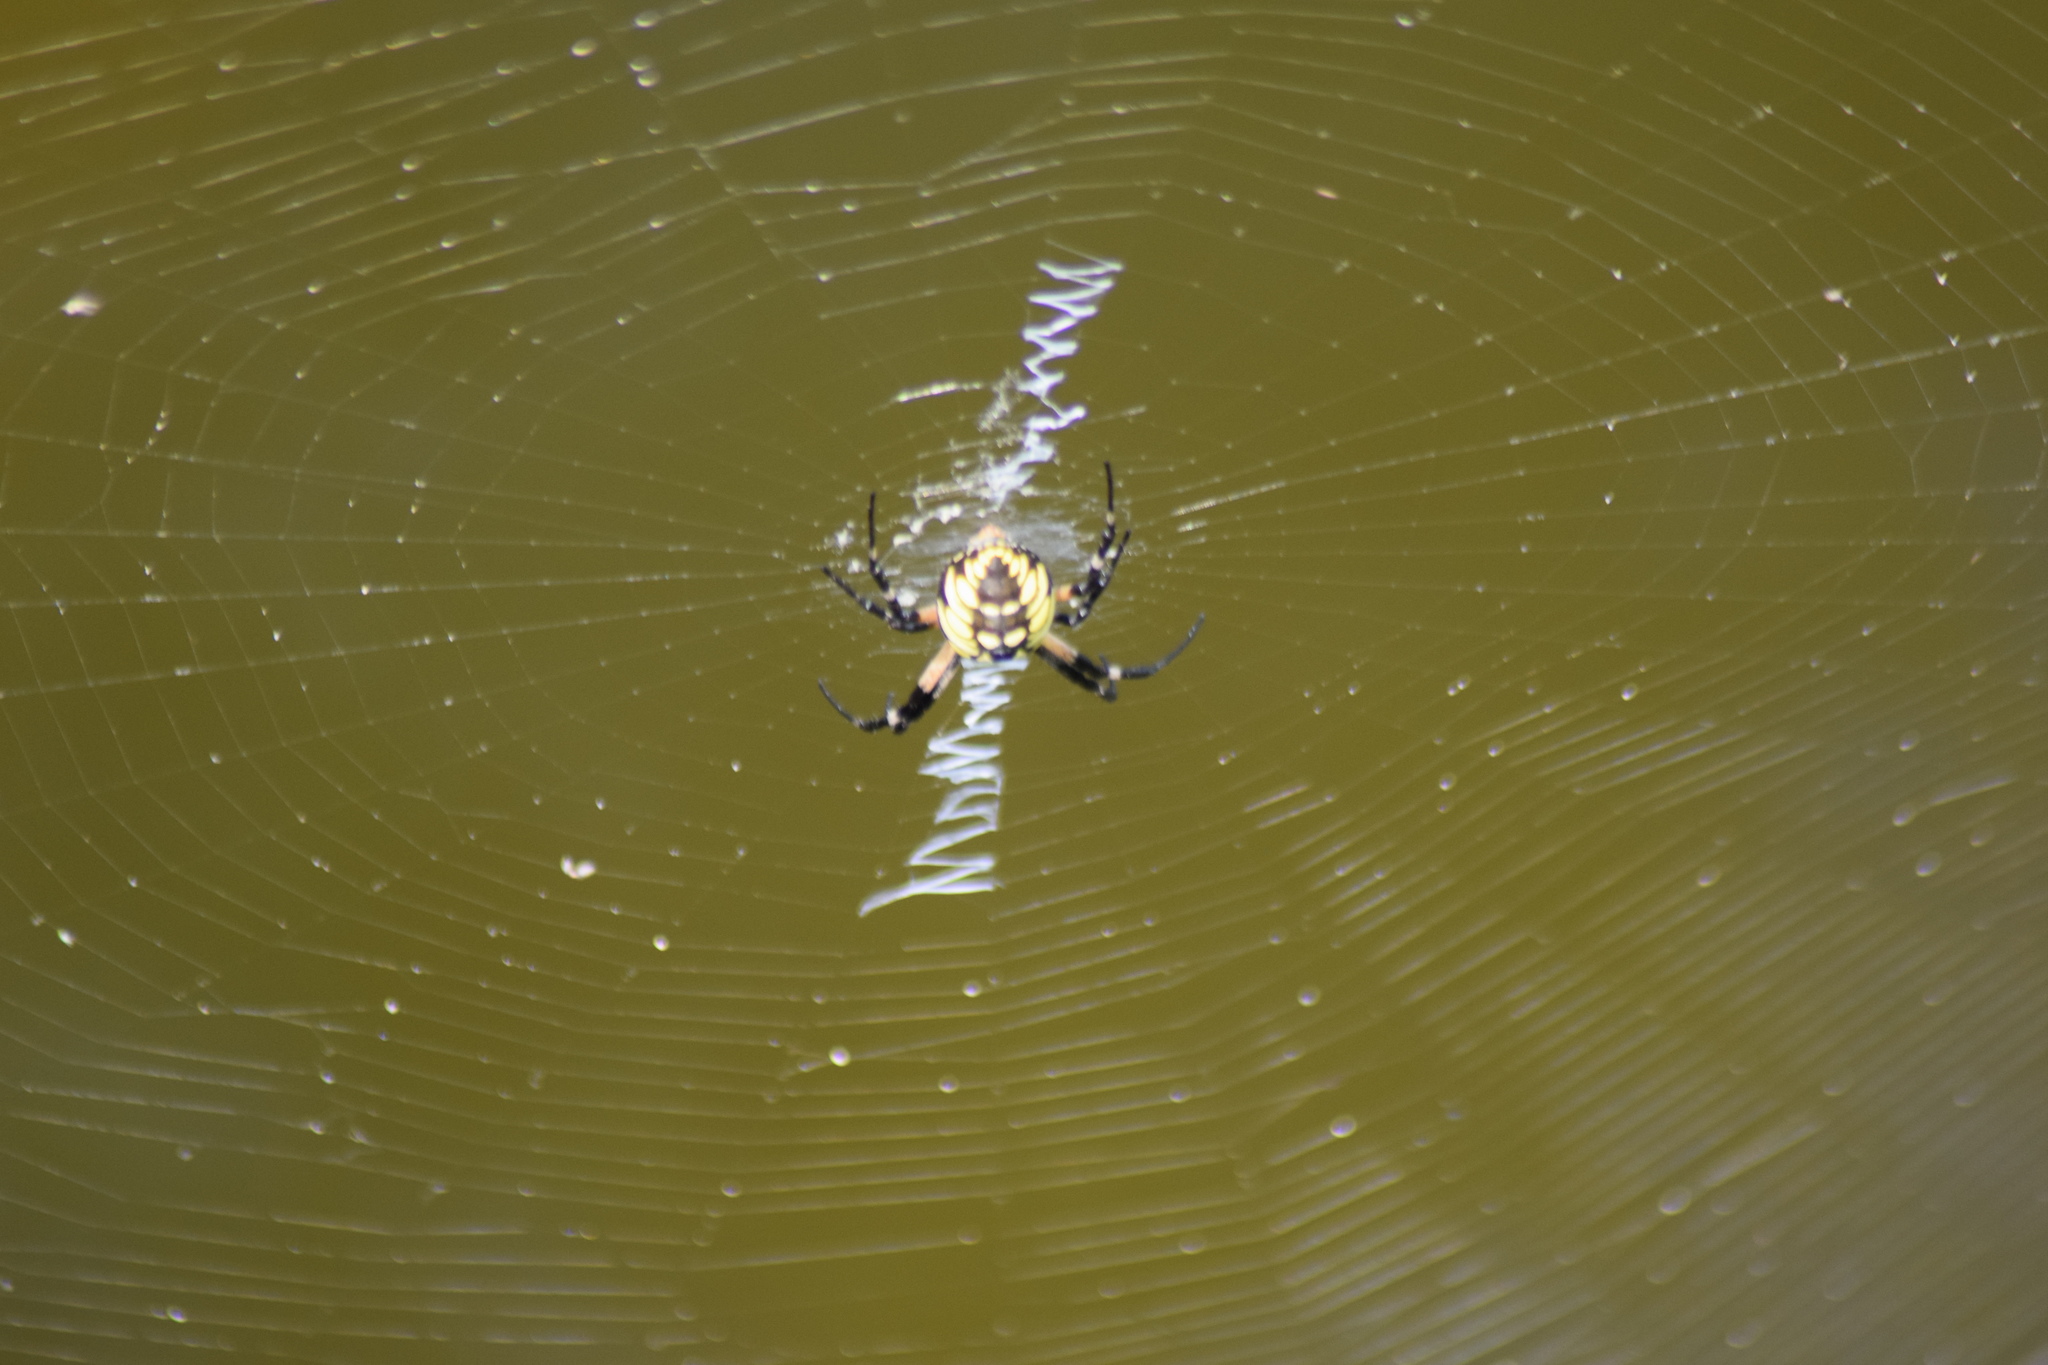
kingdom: Animalia
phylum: Arthropoda
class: Arachnida
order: Araneae
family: Araneidae
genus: Argiope
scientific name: Argiope aurantia
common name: Orb weavers
